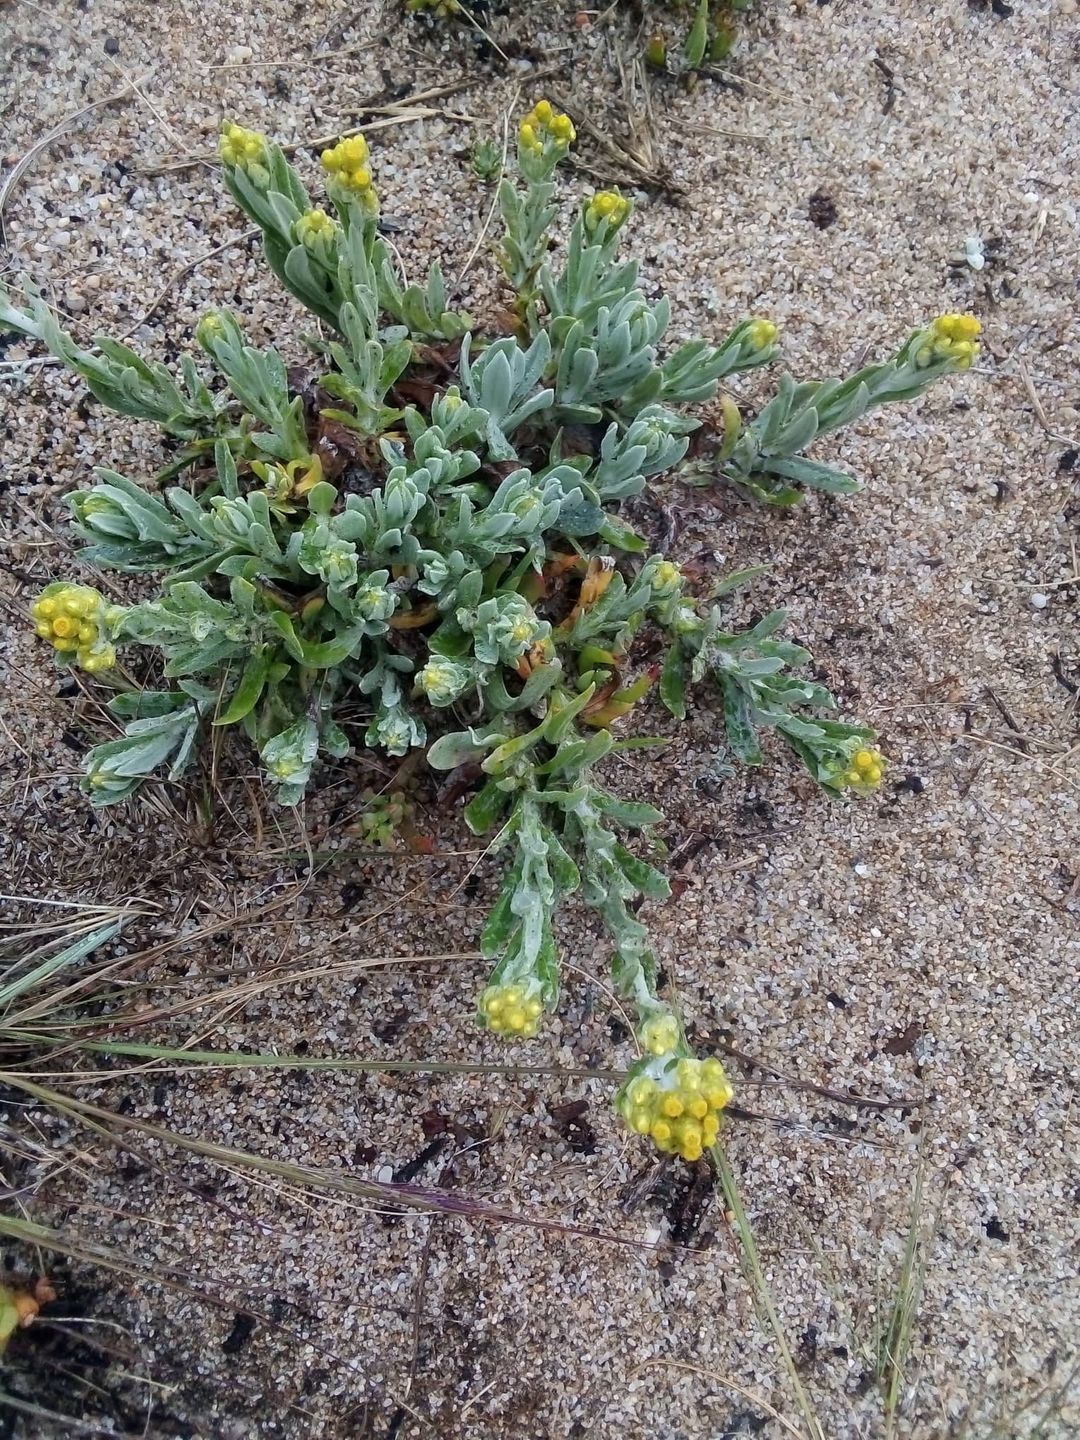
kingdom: Plantae
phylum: Tracheophyta
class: Magnoliopsida
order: Asterales
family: Asteraceae
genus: Pseudognaphalium
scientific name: Pseudognaphalium cheiranthifolium
